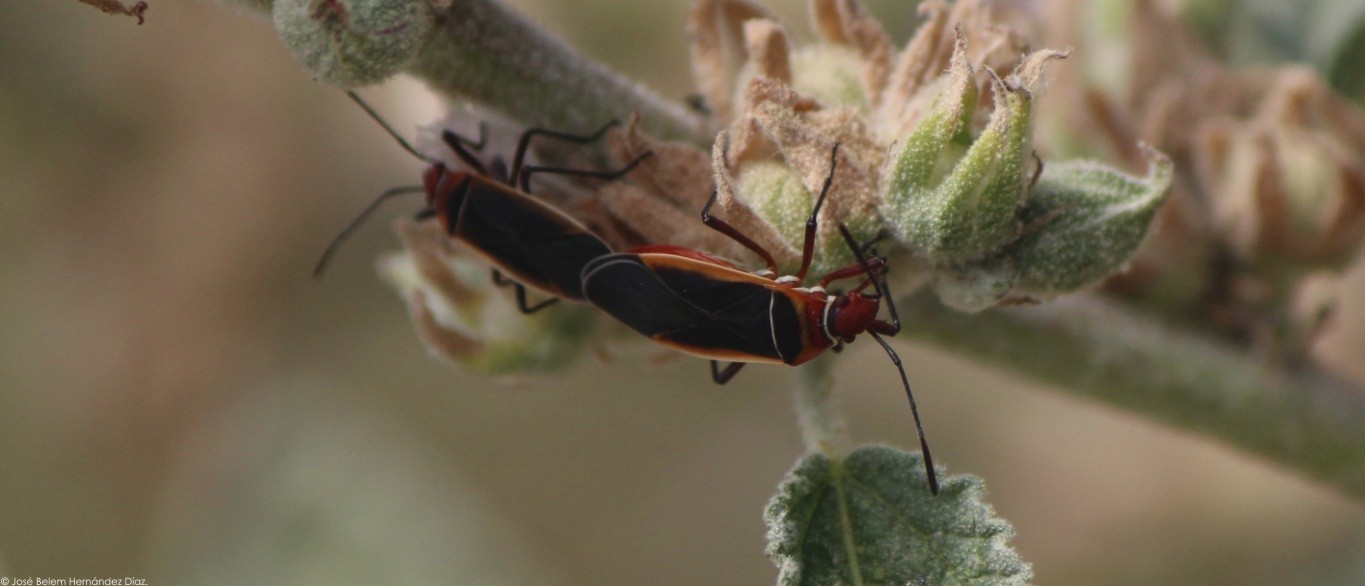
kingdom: Animalia
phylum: Arthropoda
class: Insecta
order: Hemiptera
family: Pyrrhocoridae
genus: Dysdercus
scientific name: Dysdercus mimulus
